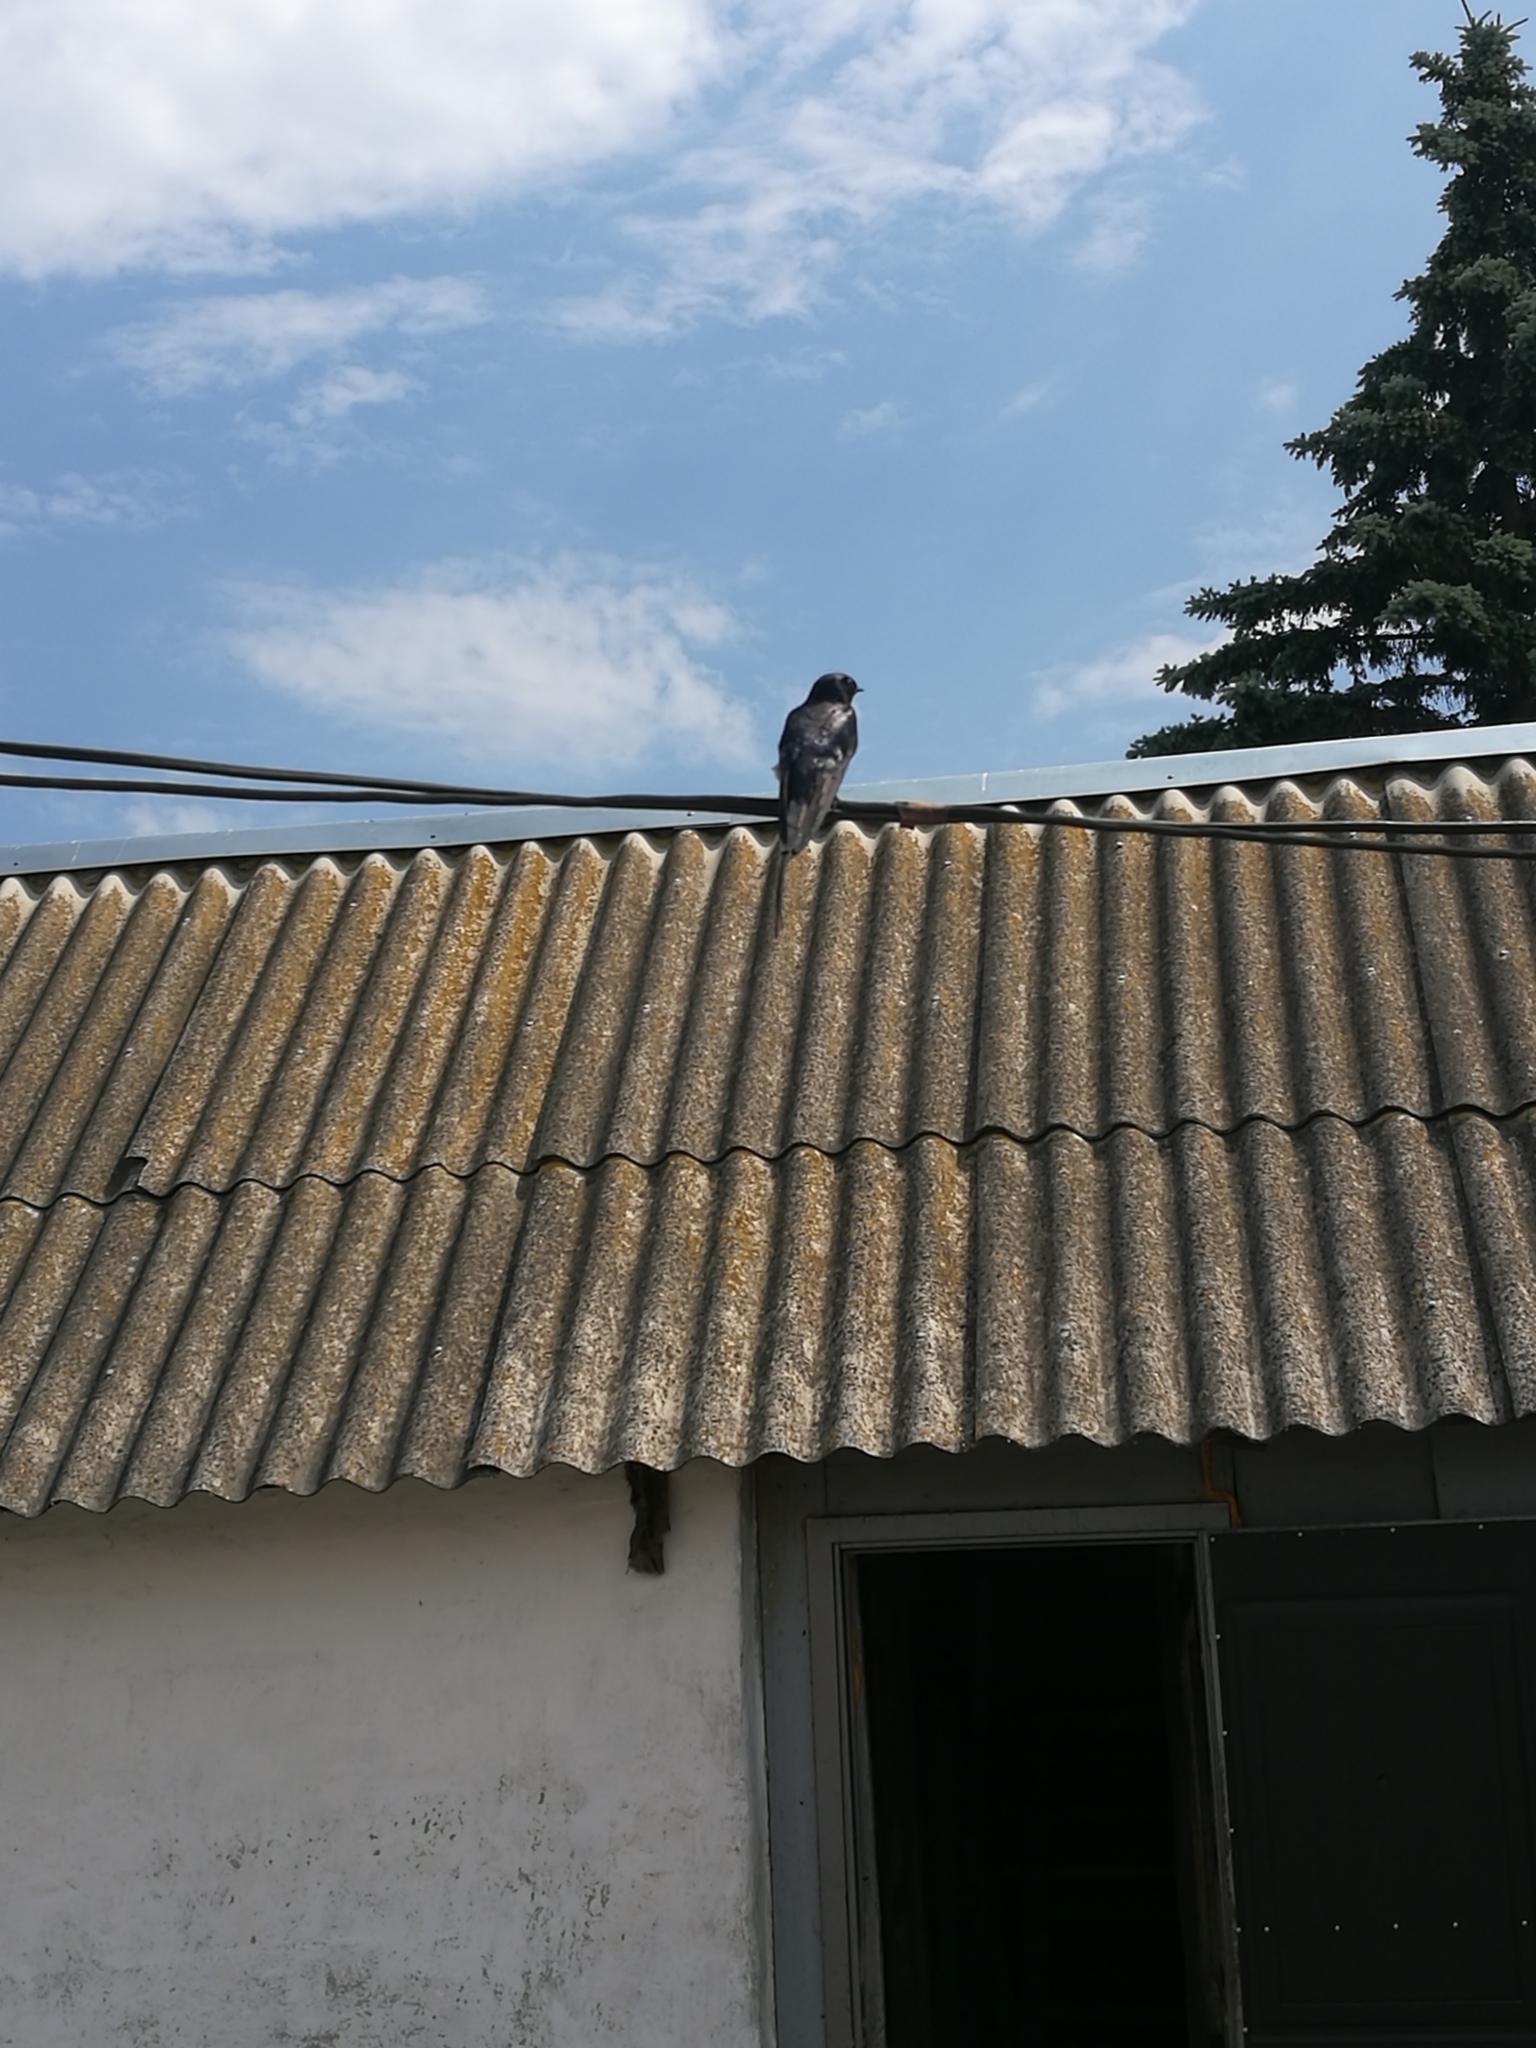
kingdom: Animalia
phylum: Chordata
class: Aves
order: Passeriformes
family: Hirundinidae
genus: Hirundo
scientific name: Hirundo rustica
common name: Barn swallow
